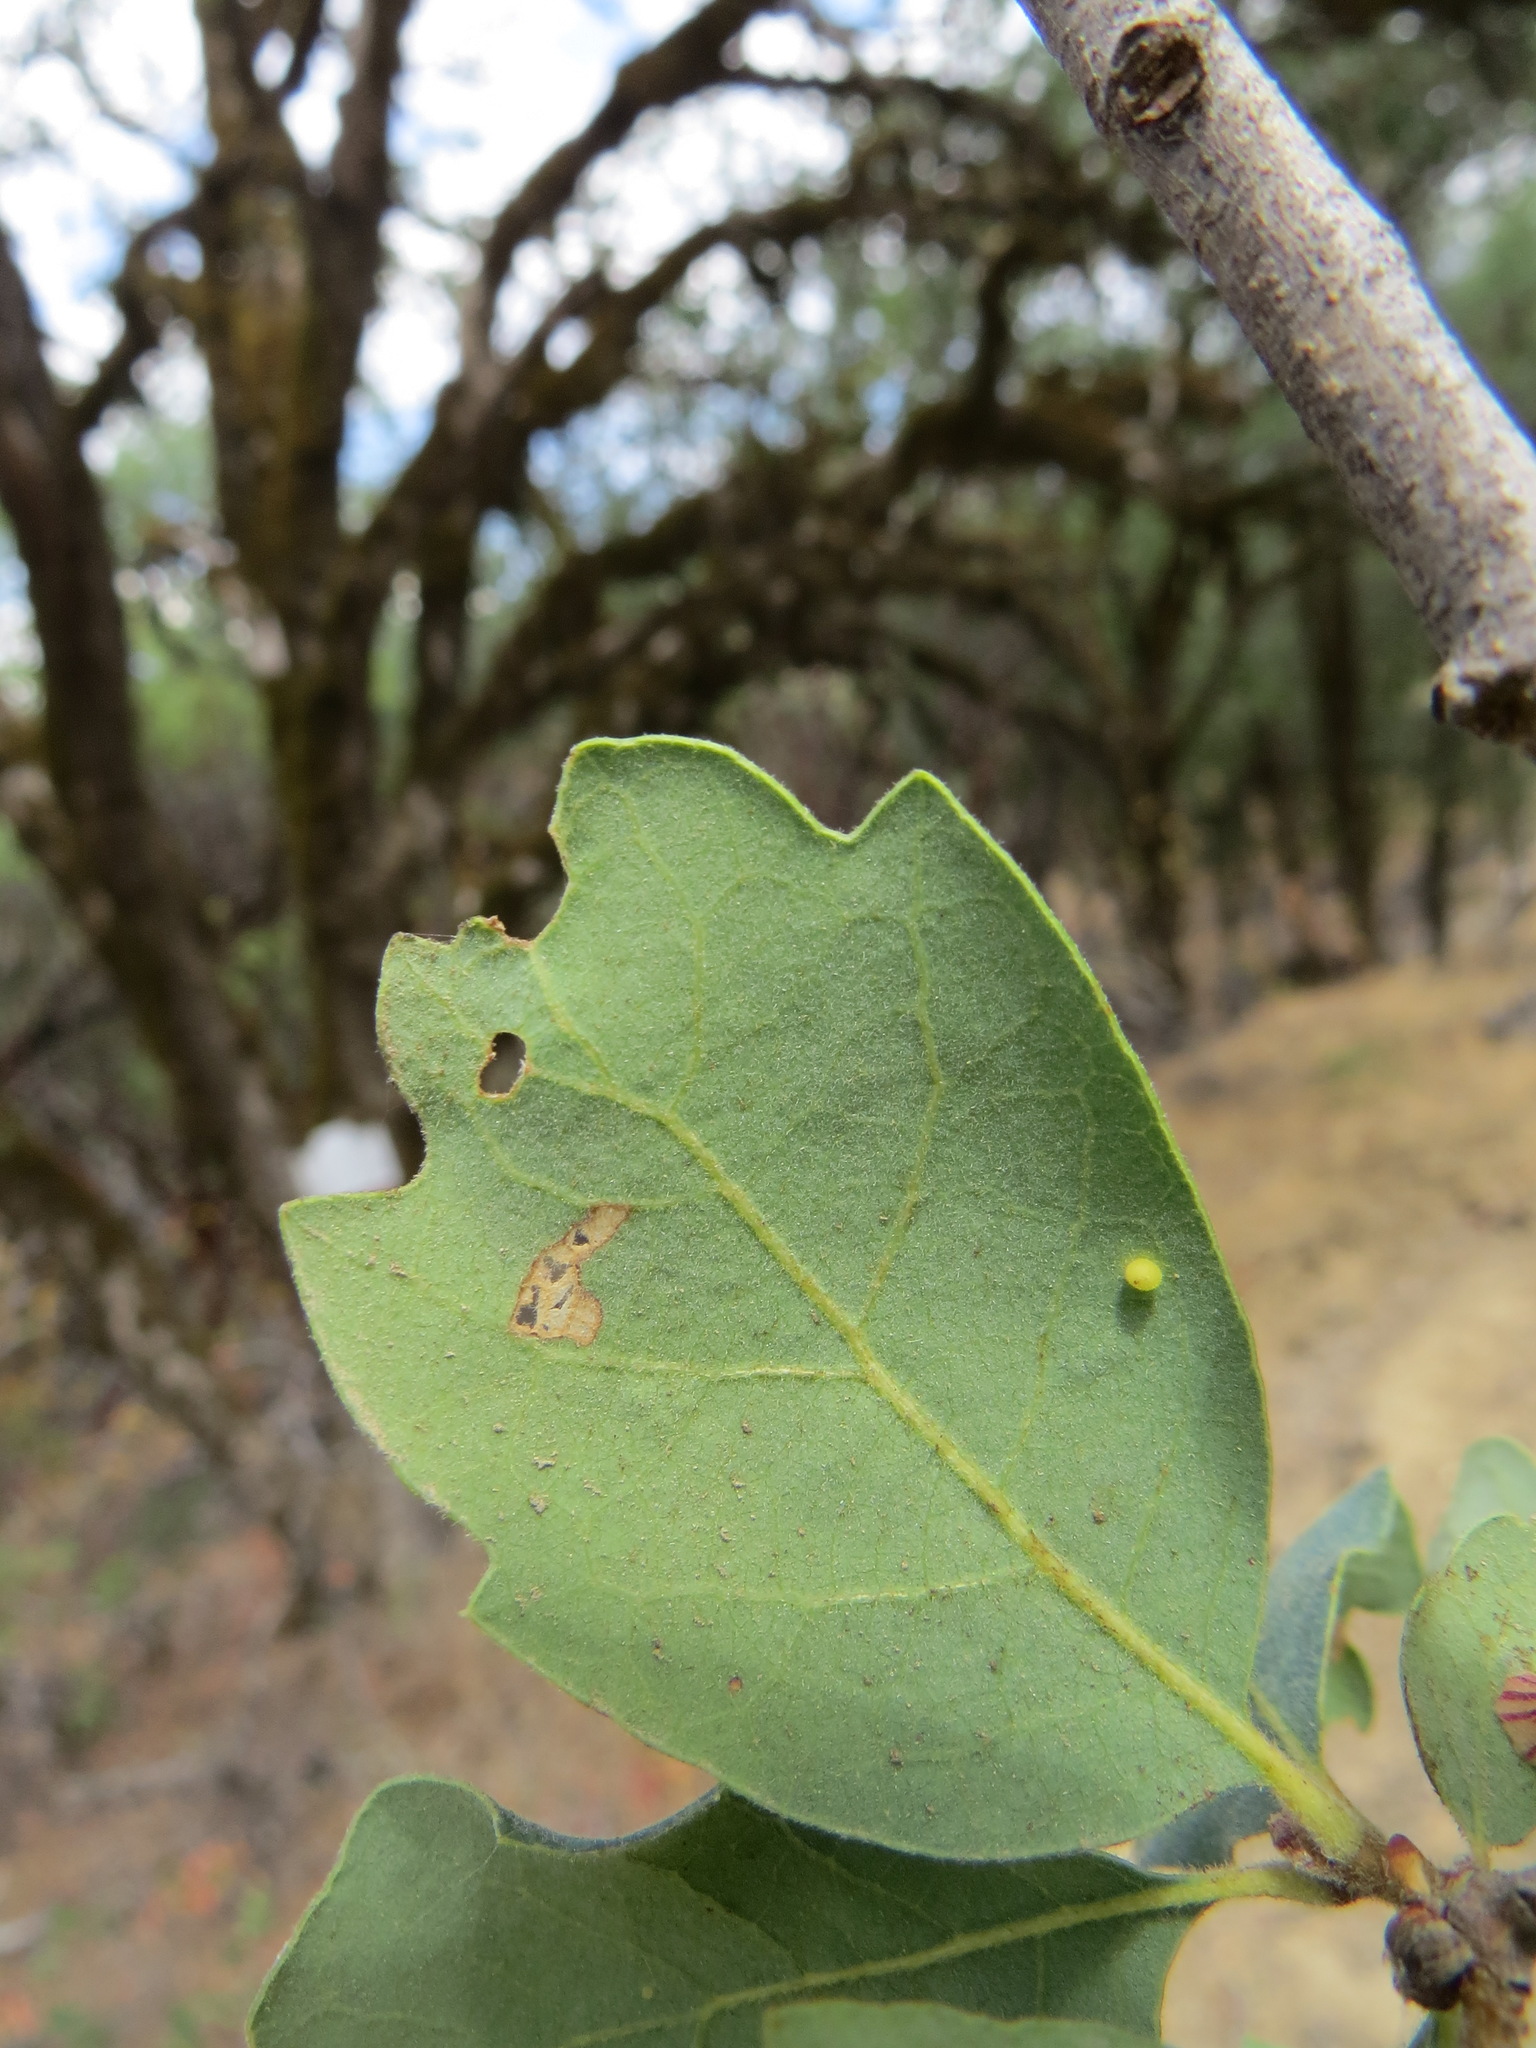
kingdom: Animalia
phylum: Arthropoda
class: Insecta
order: Hymenoptera
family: Cynipidae
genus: Neuroterus
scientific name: Neuroterus saltarius
